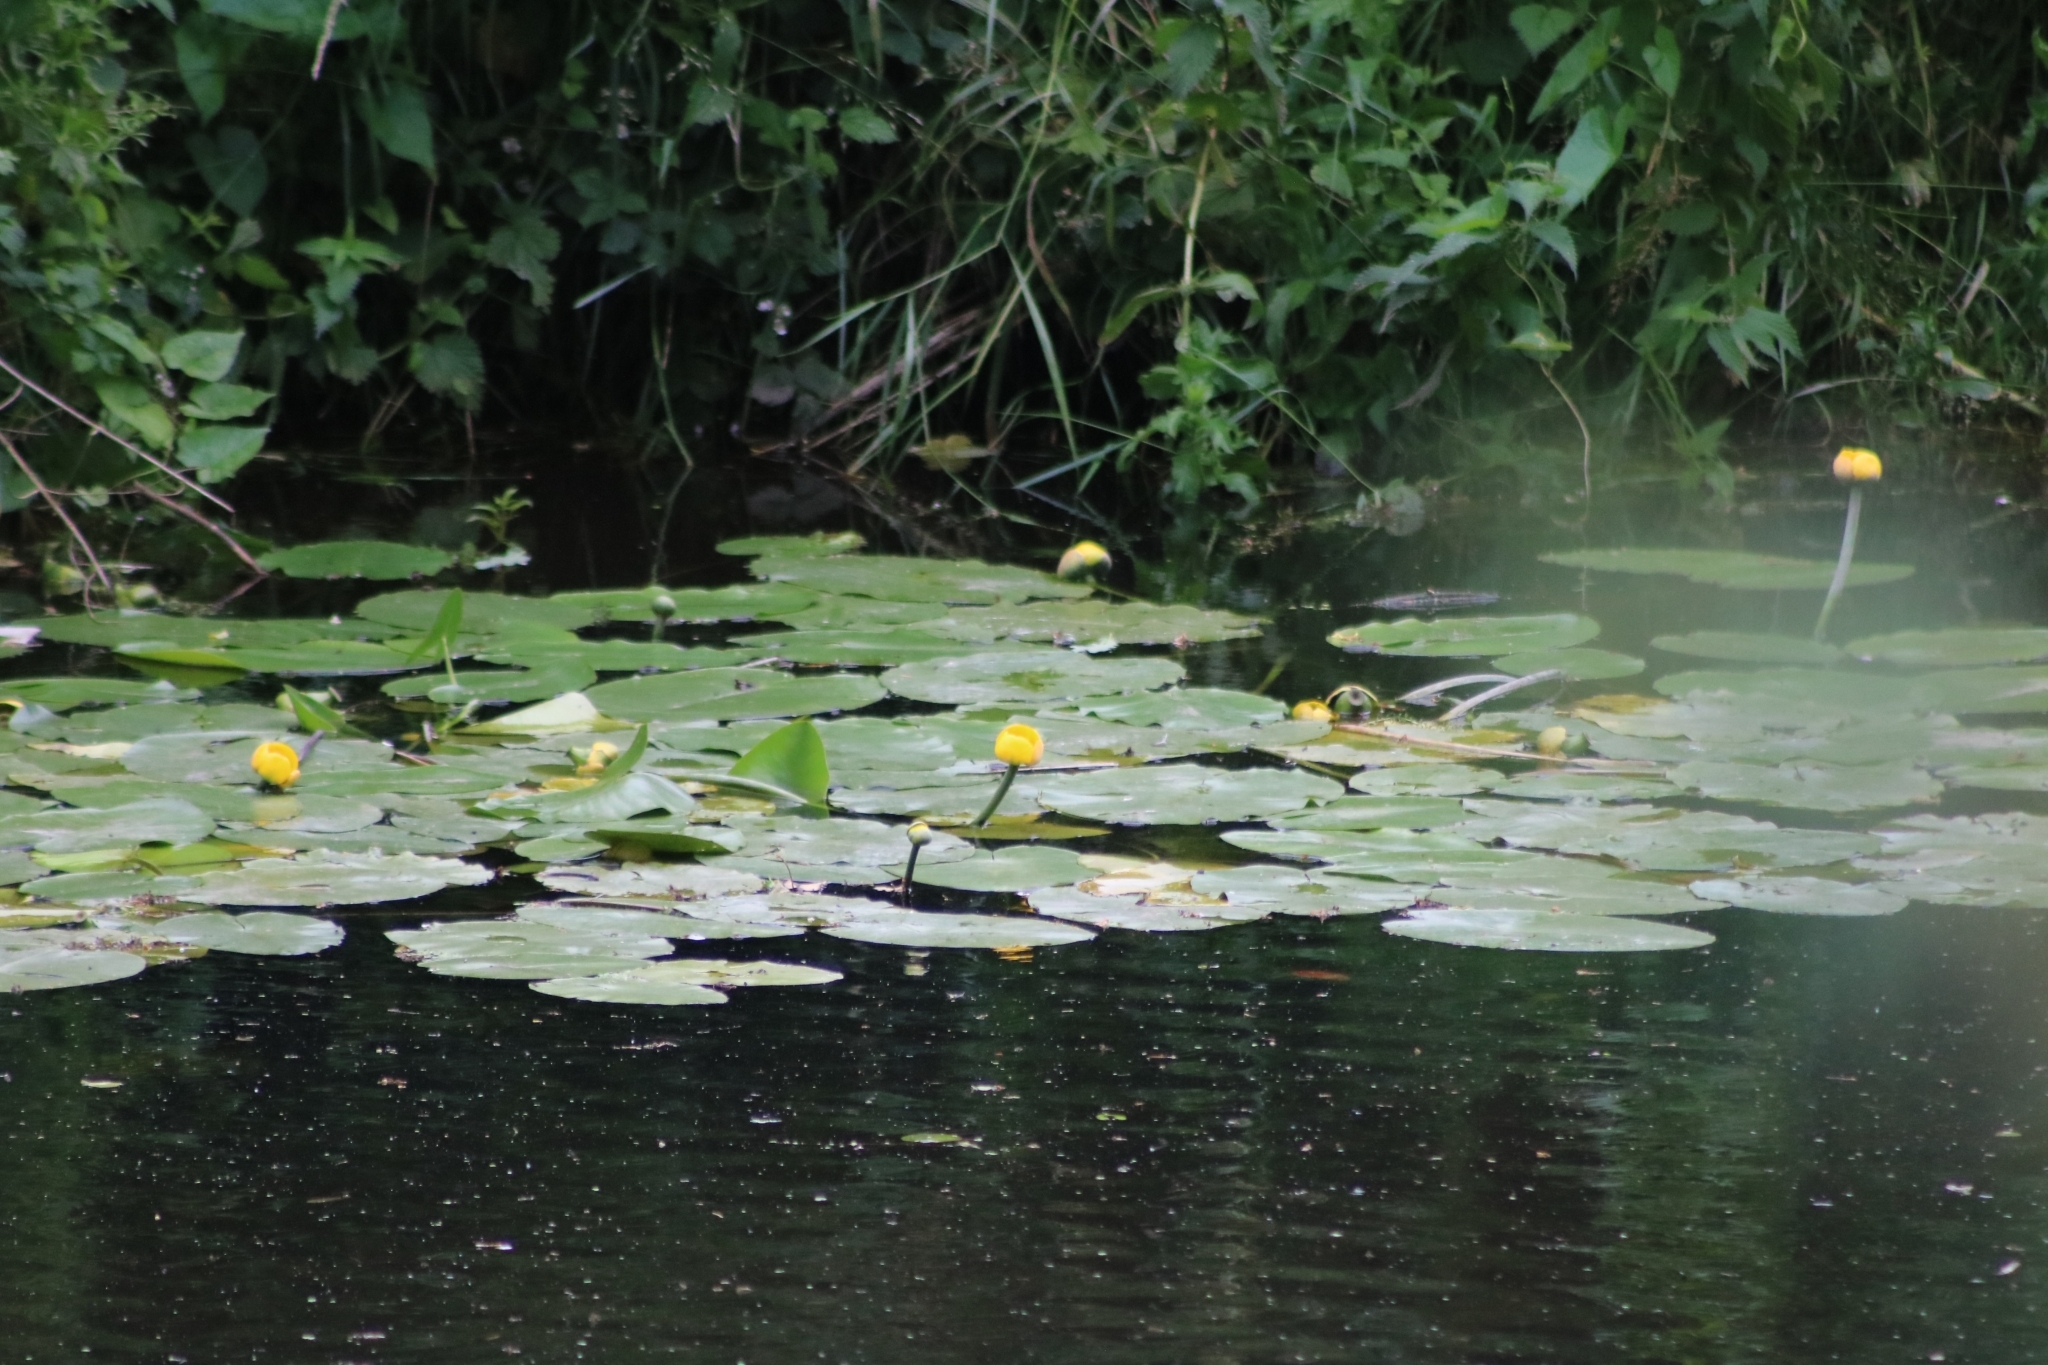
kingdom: Plantae
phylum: Tracheophyta
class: Magnoliopsida
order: Nymphaeales
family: Nymphaeaceae
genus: Nuphar
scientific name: Nuphar lutea
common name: Yellow water-lily
